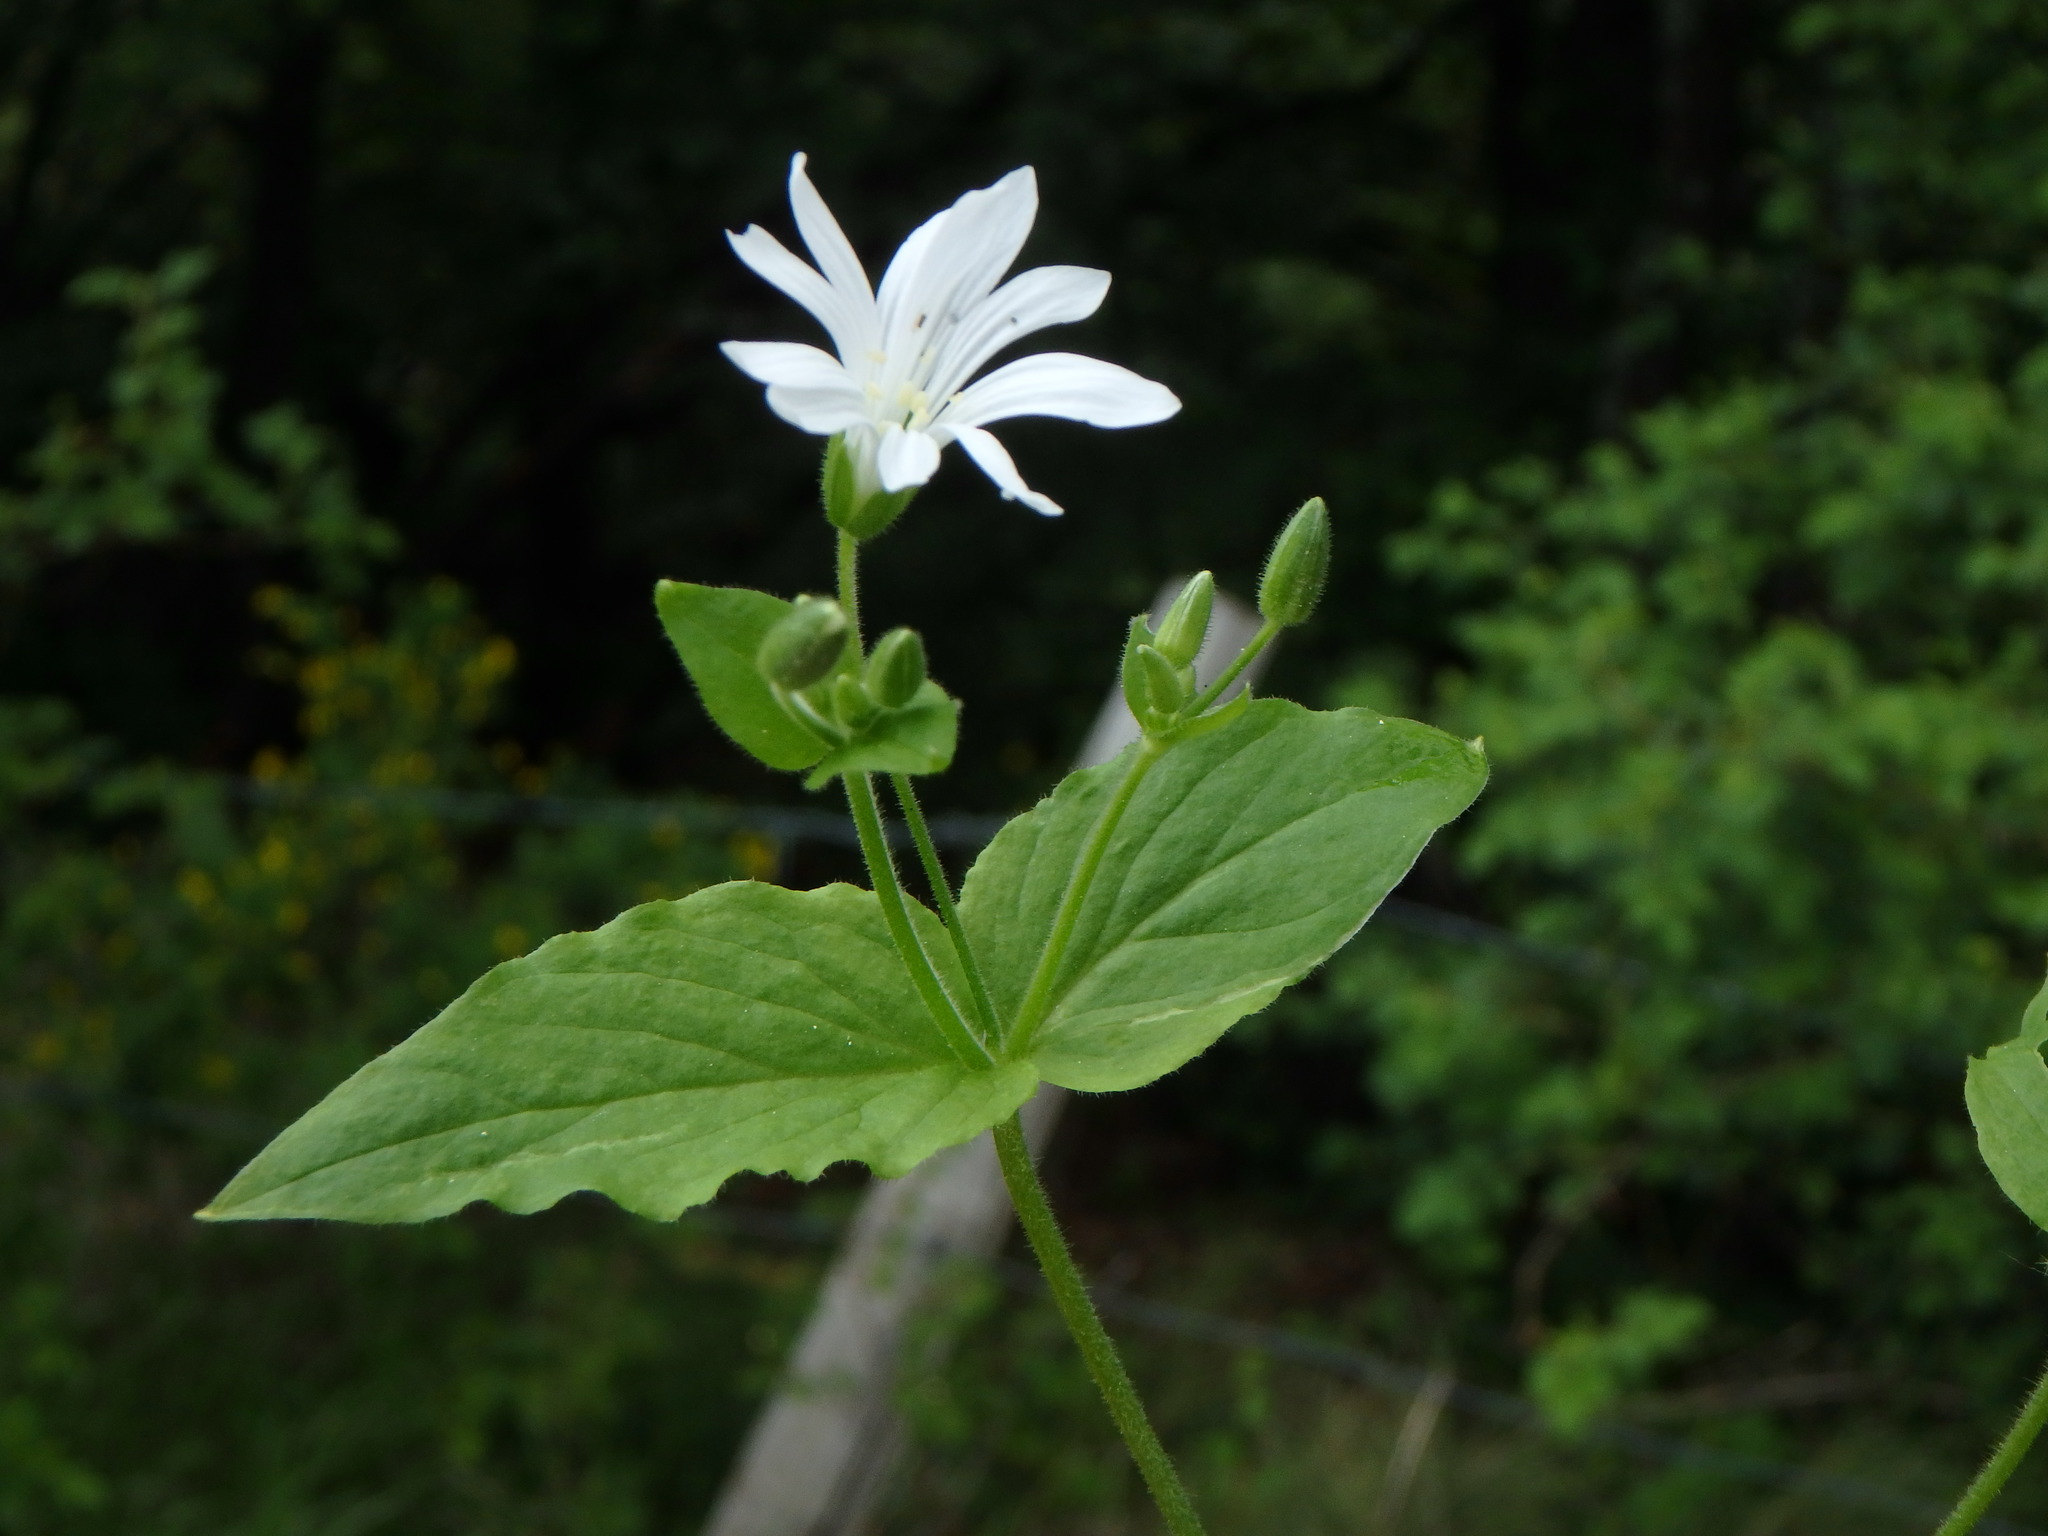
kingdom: Plantae
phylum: Tracheophyta
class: Magnoliopsida
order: Caryophyllales
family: Caryophyllaceae
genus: Stellaria
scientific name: Stellaria nemorum
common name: Wood stitchwort
